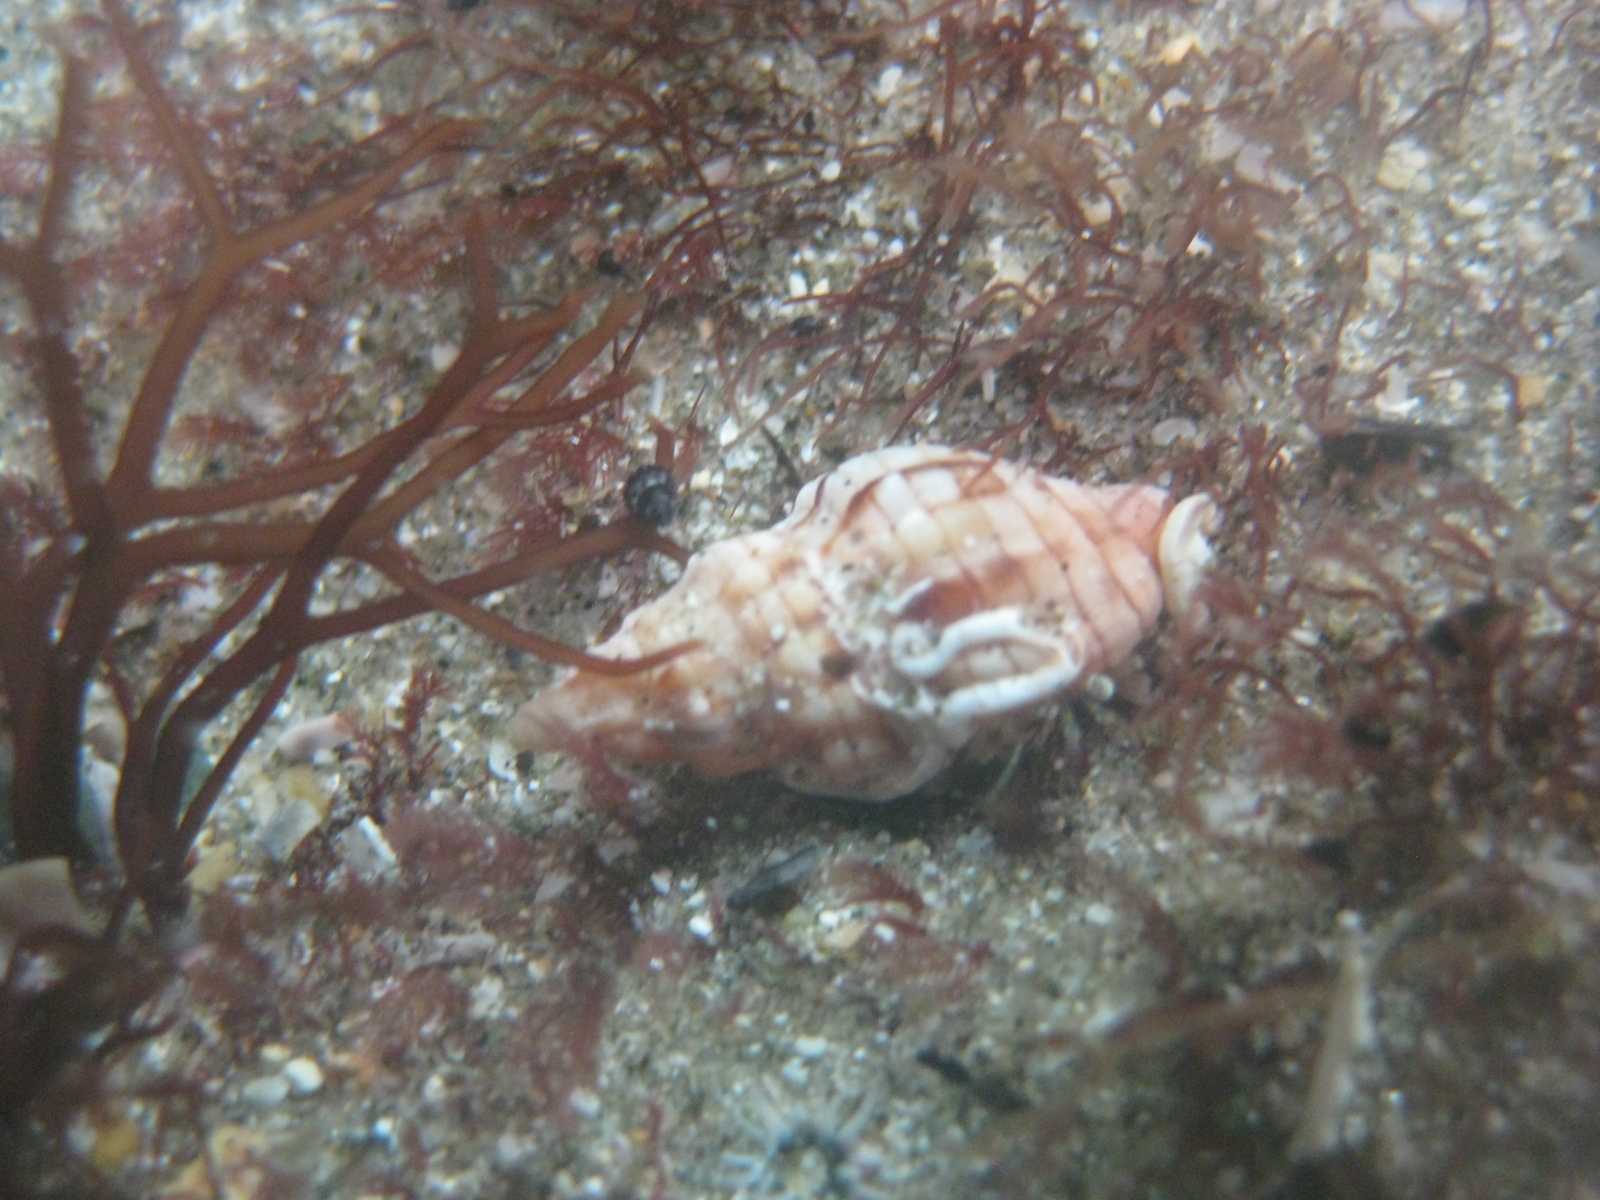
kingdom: Animalia
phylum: Mollusca
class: Gastropoda
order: Neogastropoda
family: Cominellidae
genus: Cominella
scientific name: Cominella quoyana
